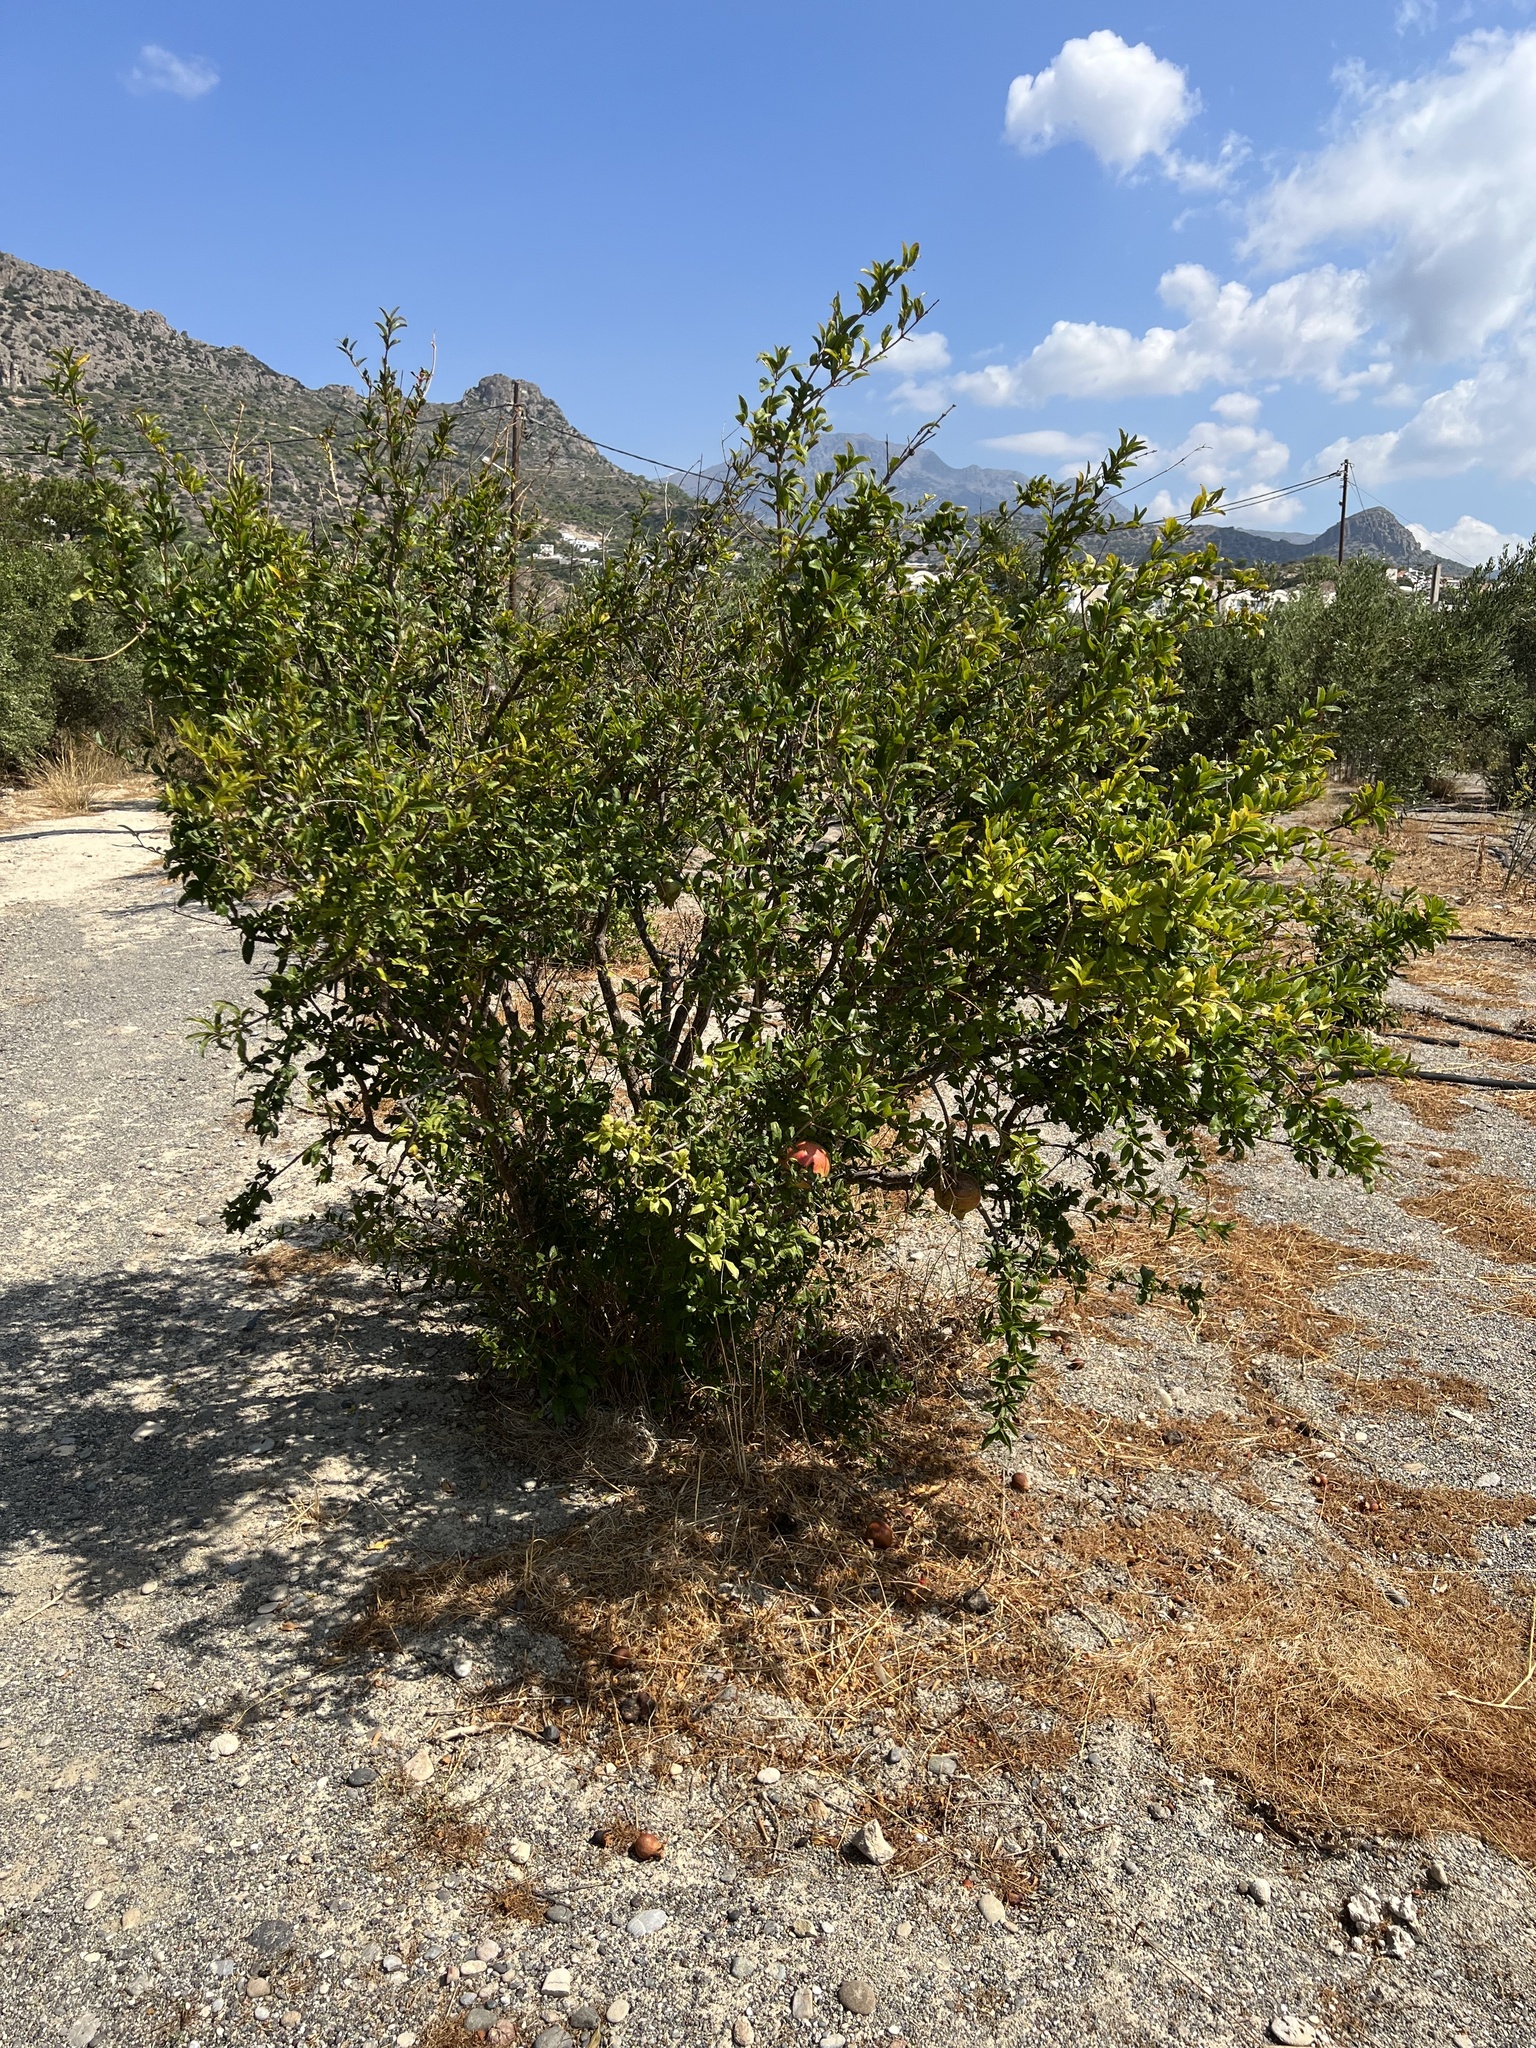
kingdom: Plantae
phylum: Tracheophyta
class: Magnoliopsida
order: Myrtales
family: Lythraceae
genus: Punica
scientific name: Punica granatum
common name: Pomegranate
